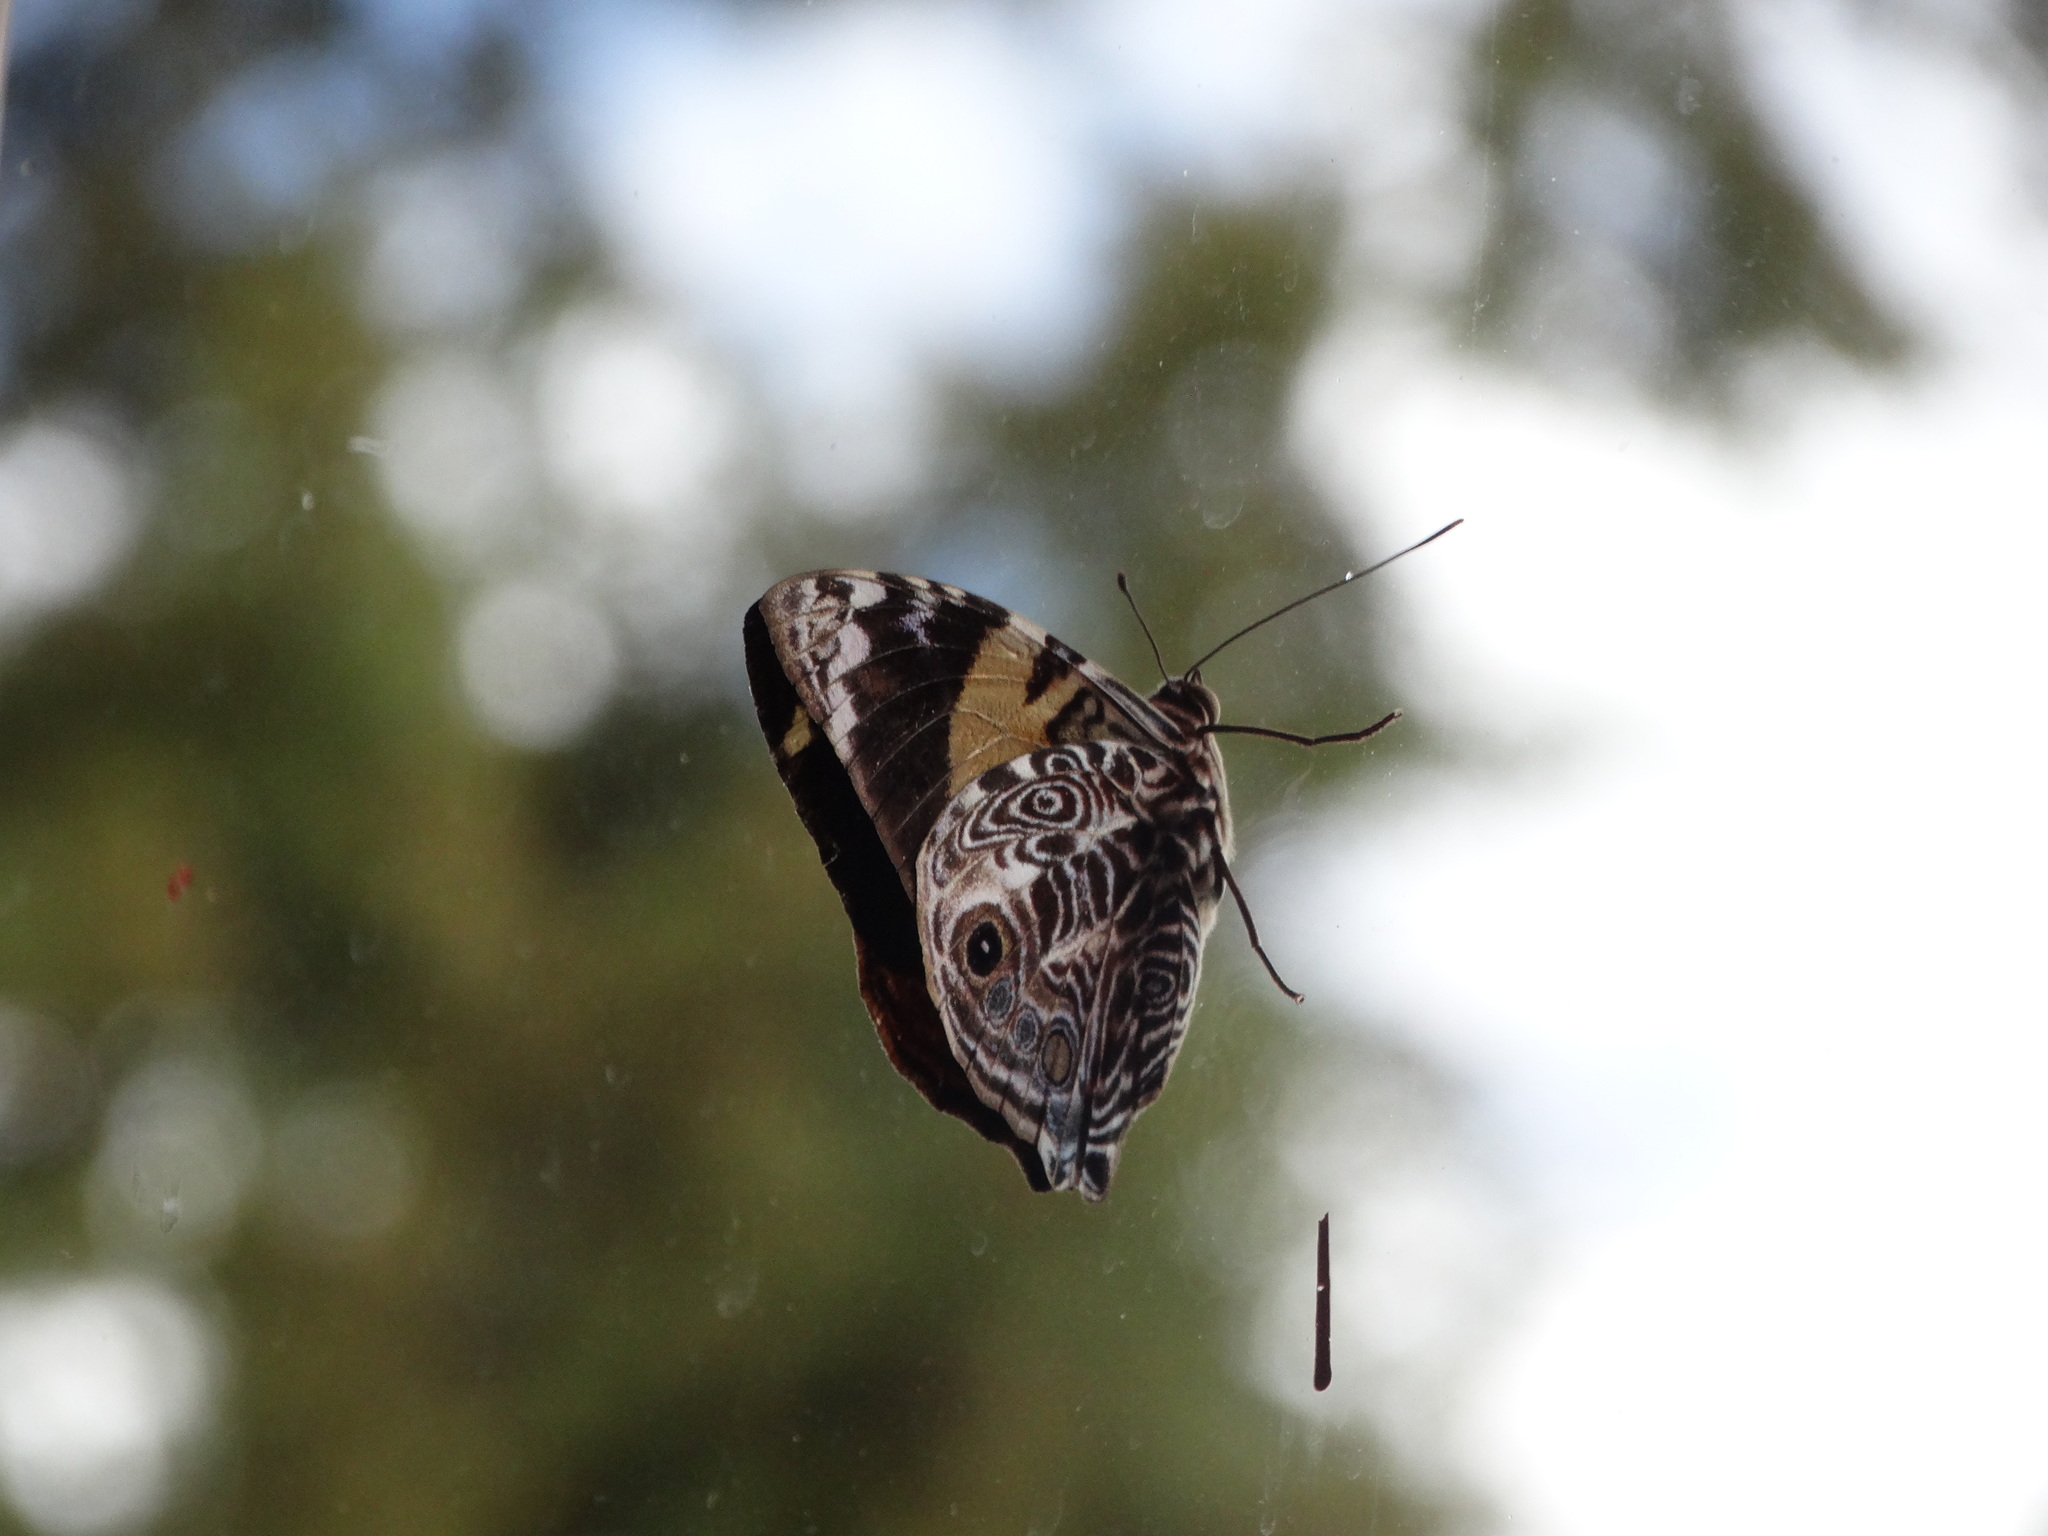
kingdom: Animalia
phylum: Arthropoda
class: Insecta
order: Lepidoptera
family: Nymphalidae
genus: Smyrna
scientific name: Smyrna blomfildia
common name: Blomfild's beauty
